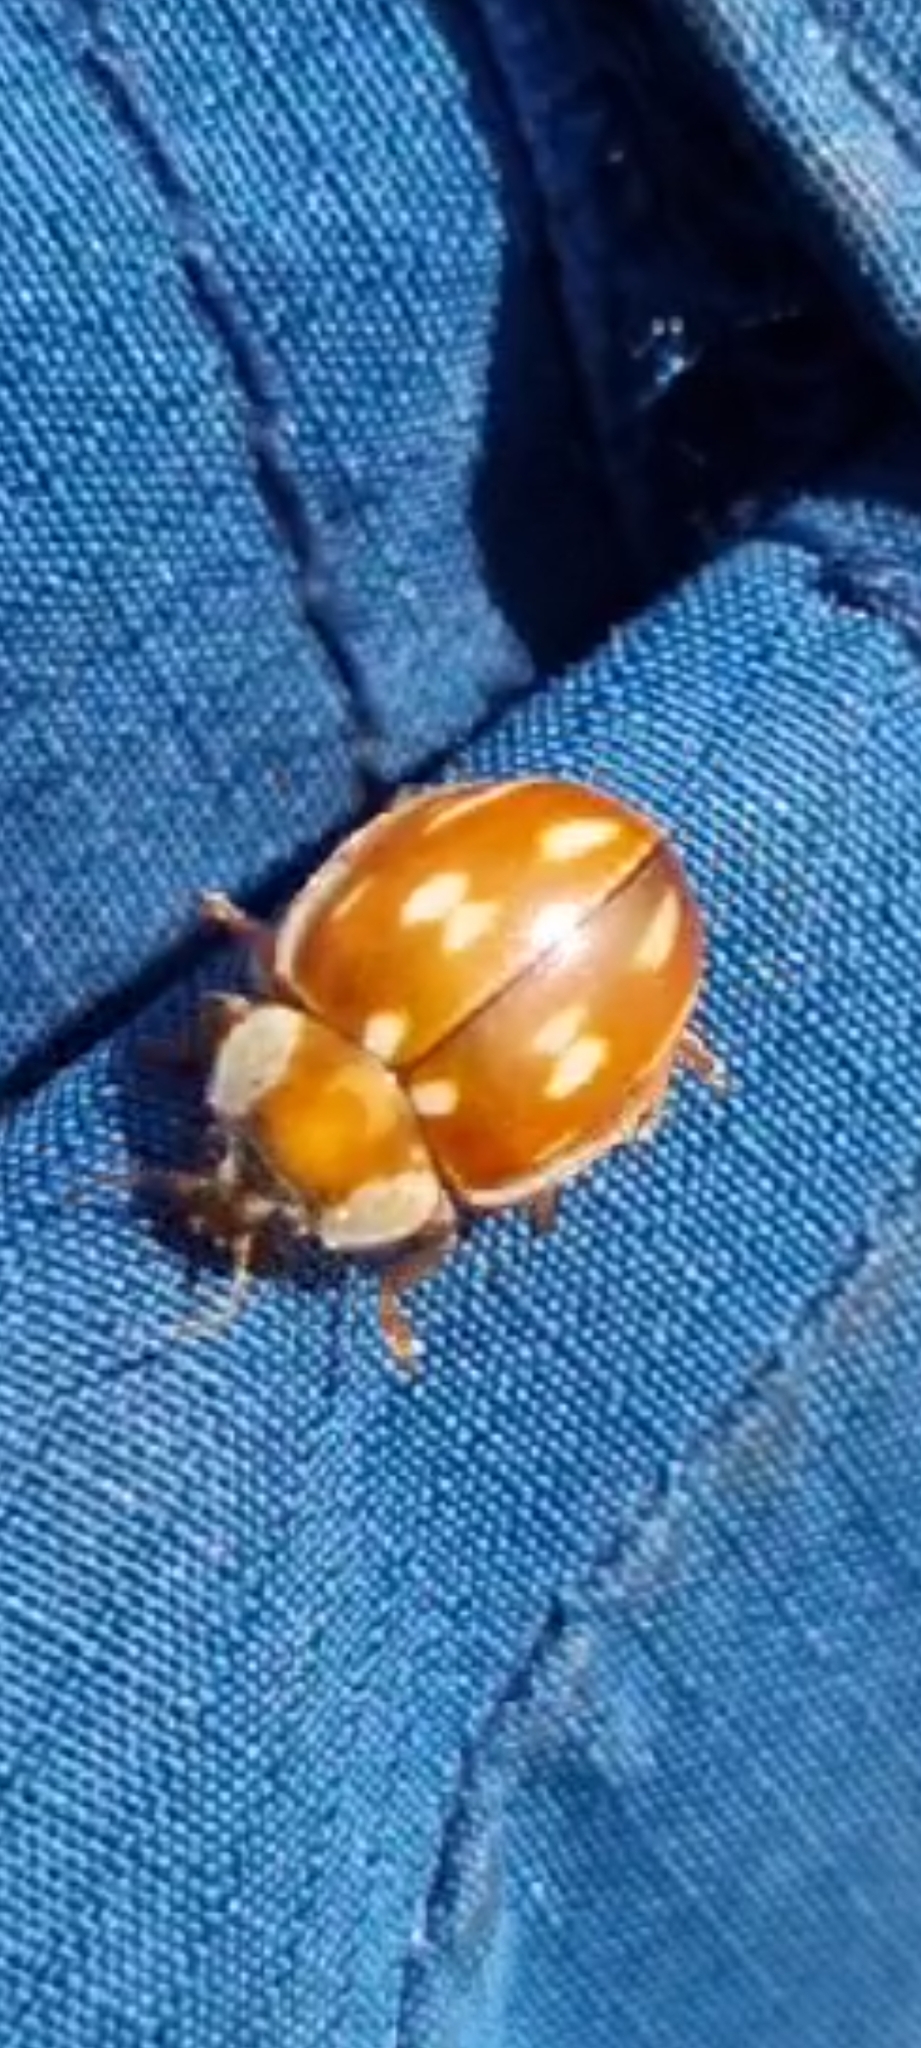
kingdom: Animalia
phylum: Arthropoda
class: Insecta
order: Coleoptera
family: Coccinellidae
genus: Myzia
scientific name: Myzia oblongoguttata
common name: Striped ladybird
